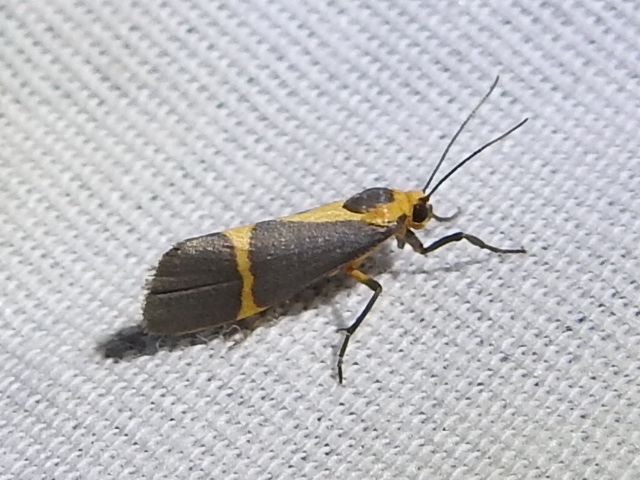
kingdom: Animalia
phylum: Arthropoda
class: Insecta
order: Lepidoptera
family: Erebidae
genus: Cisthene
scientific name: Cisthene tenuifascia
